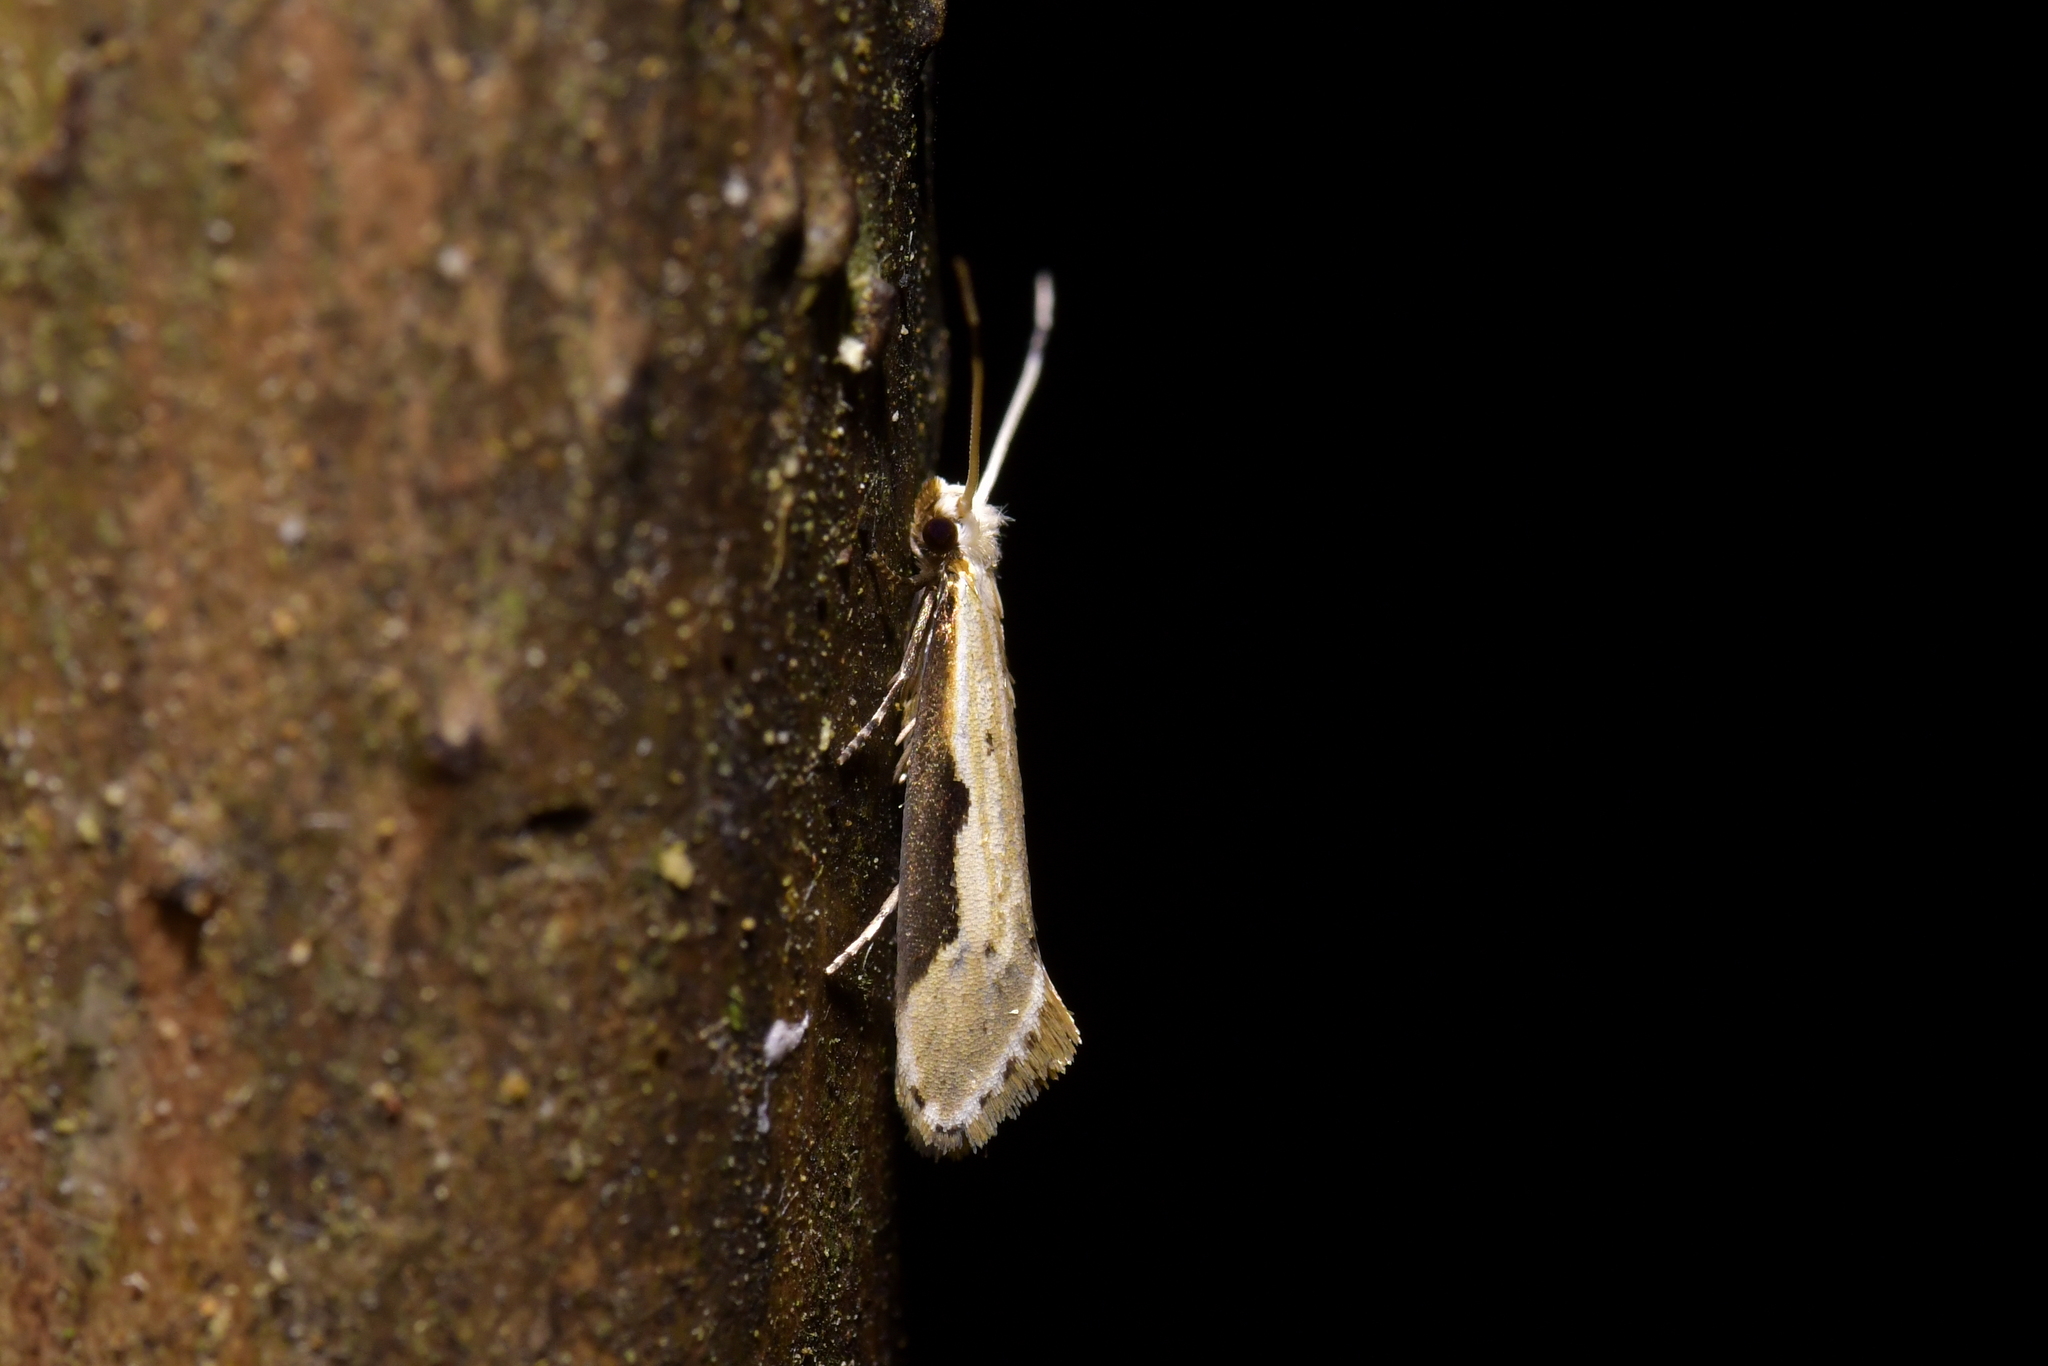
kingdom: Animalia
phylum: Arthropoda
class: Insecta
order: Lepidoptera
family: Tineidae
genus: Sagephora
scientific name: Sagephora phortegella
